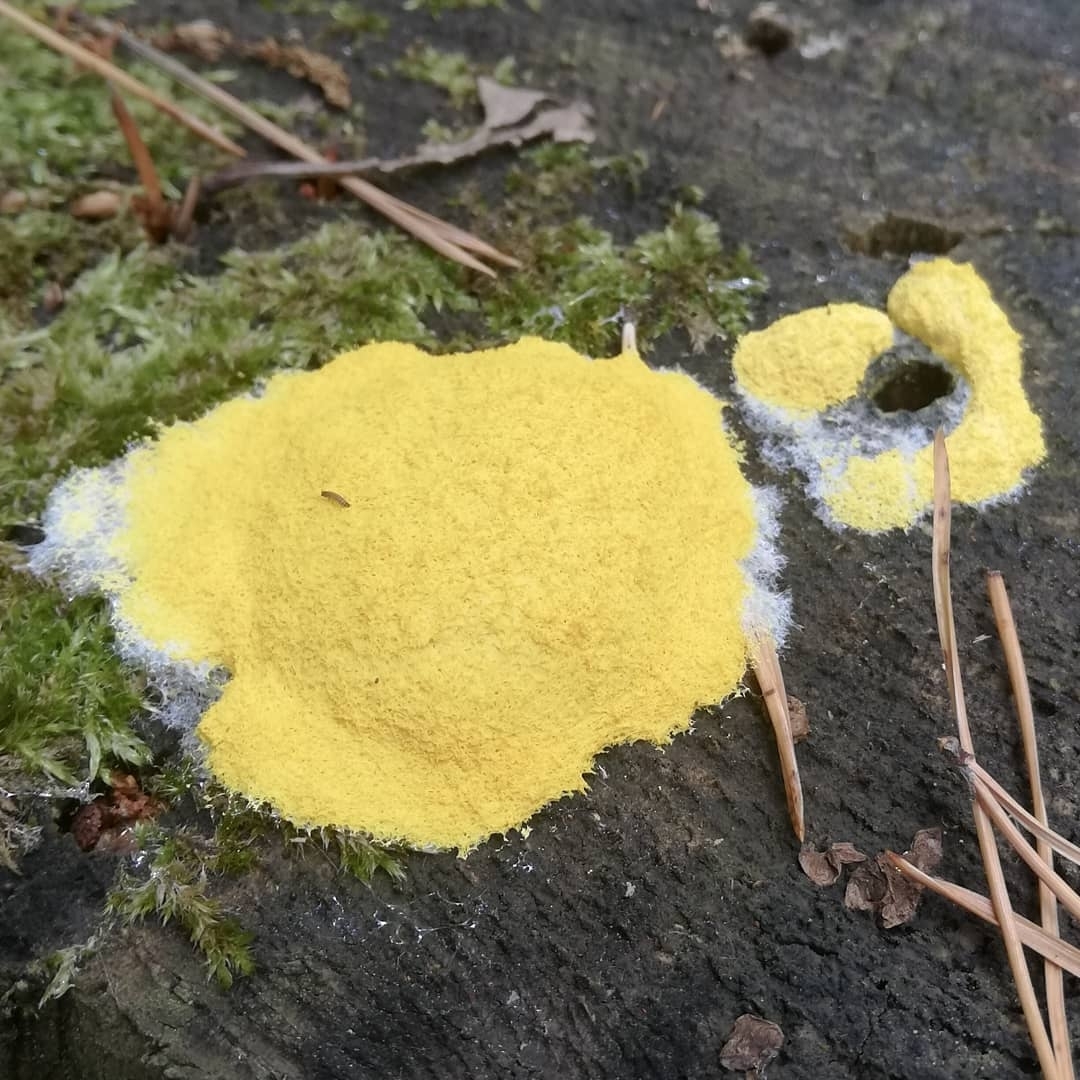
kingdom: Protozoa
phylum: Mycetozoa
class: Myxomycetes
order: Physarales
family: Physaraceae
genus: Fuligo
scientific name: Fuligo septica
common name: Dog vomit slime mold
